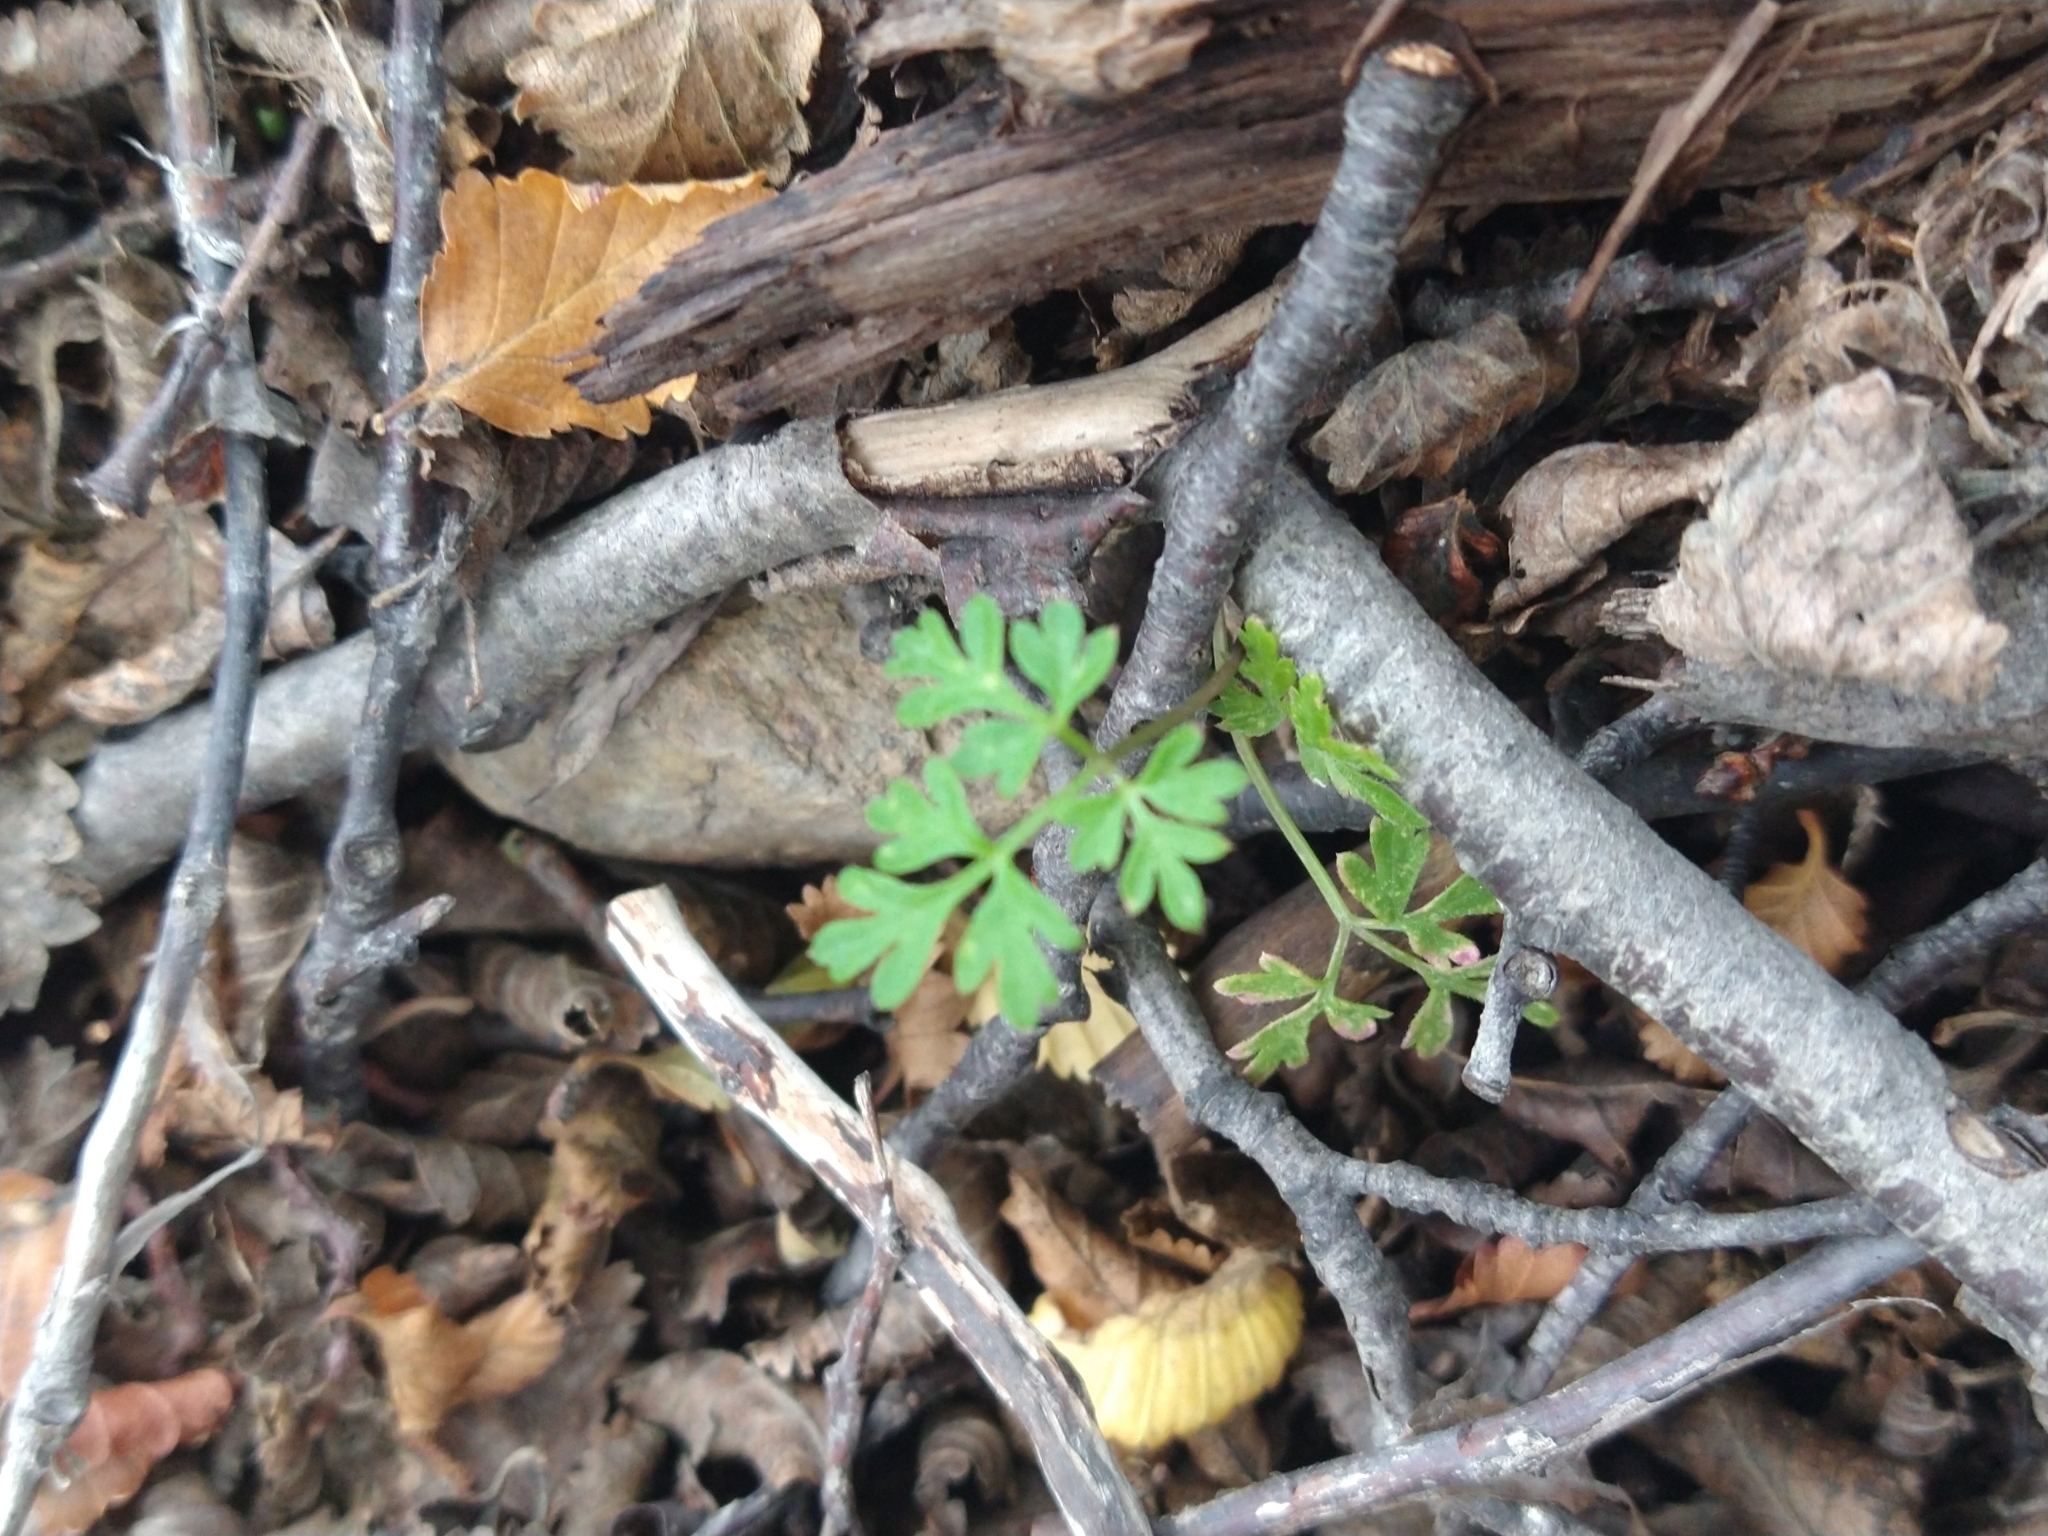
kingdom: Plantae
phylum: Tracheophyta
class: Polypodiopsida
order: Polypodiales
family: Aspleniaceae
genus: Asplenium
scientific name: Asplenium dareoides
